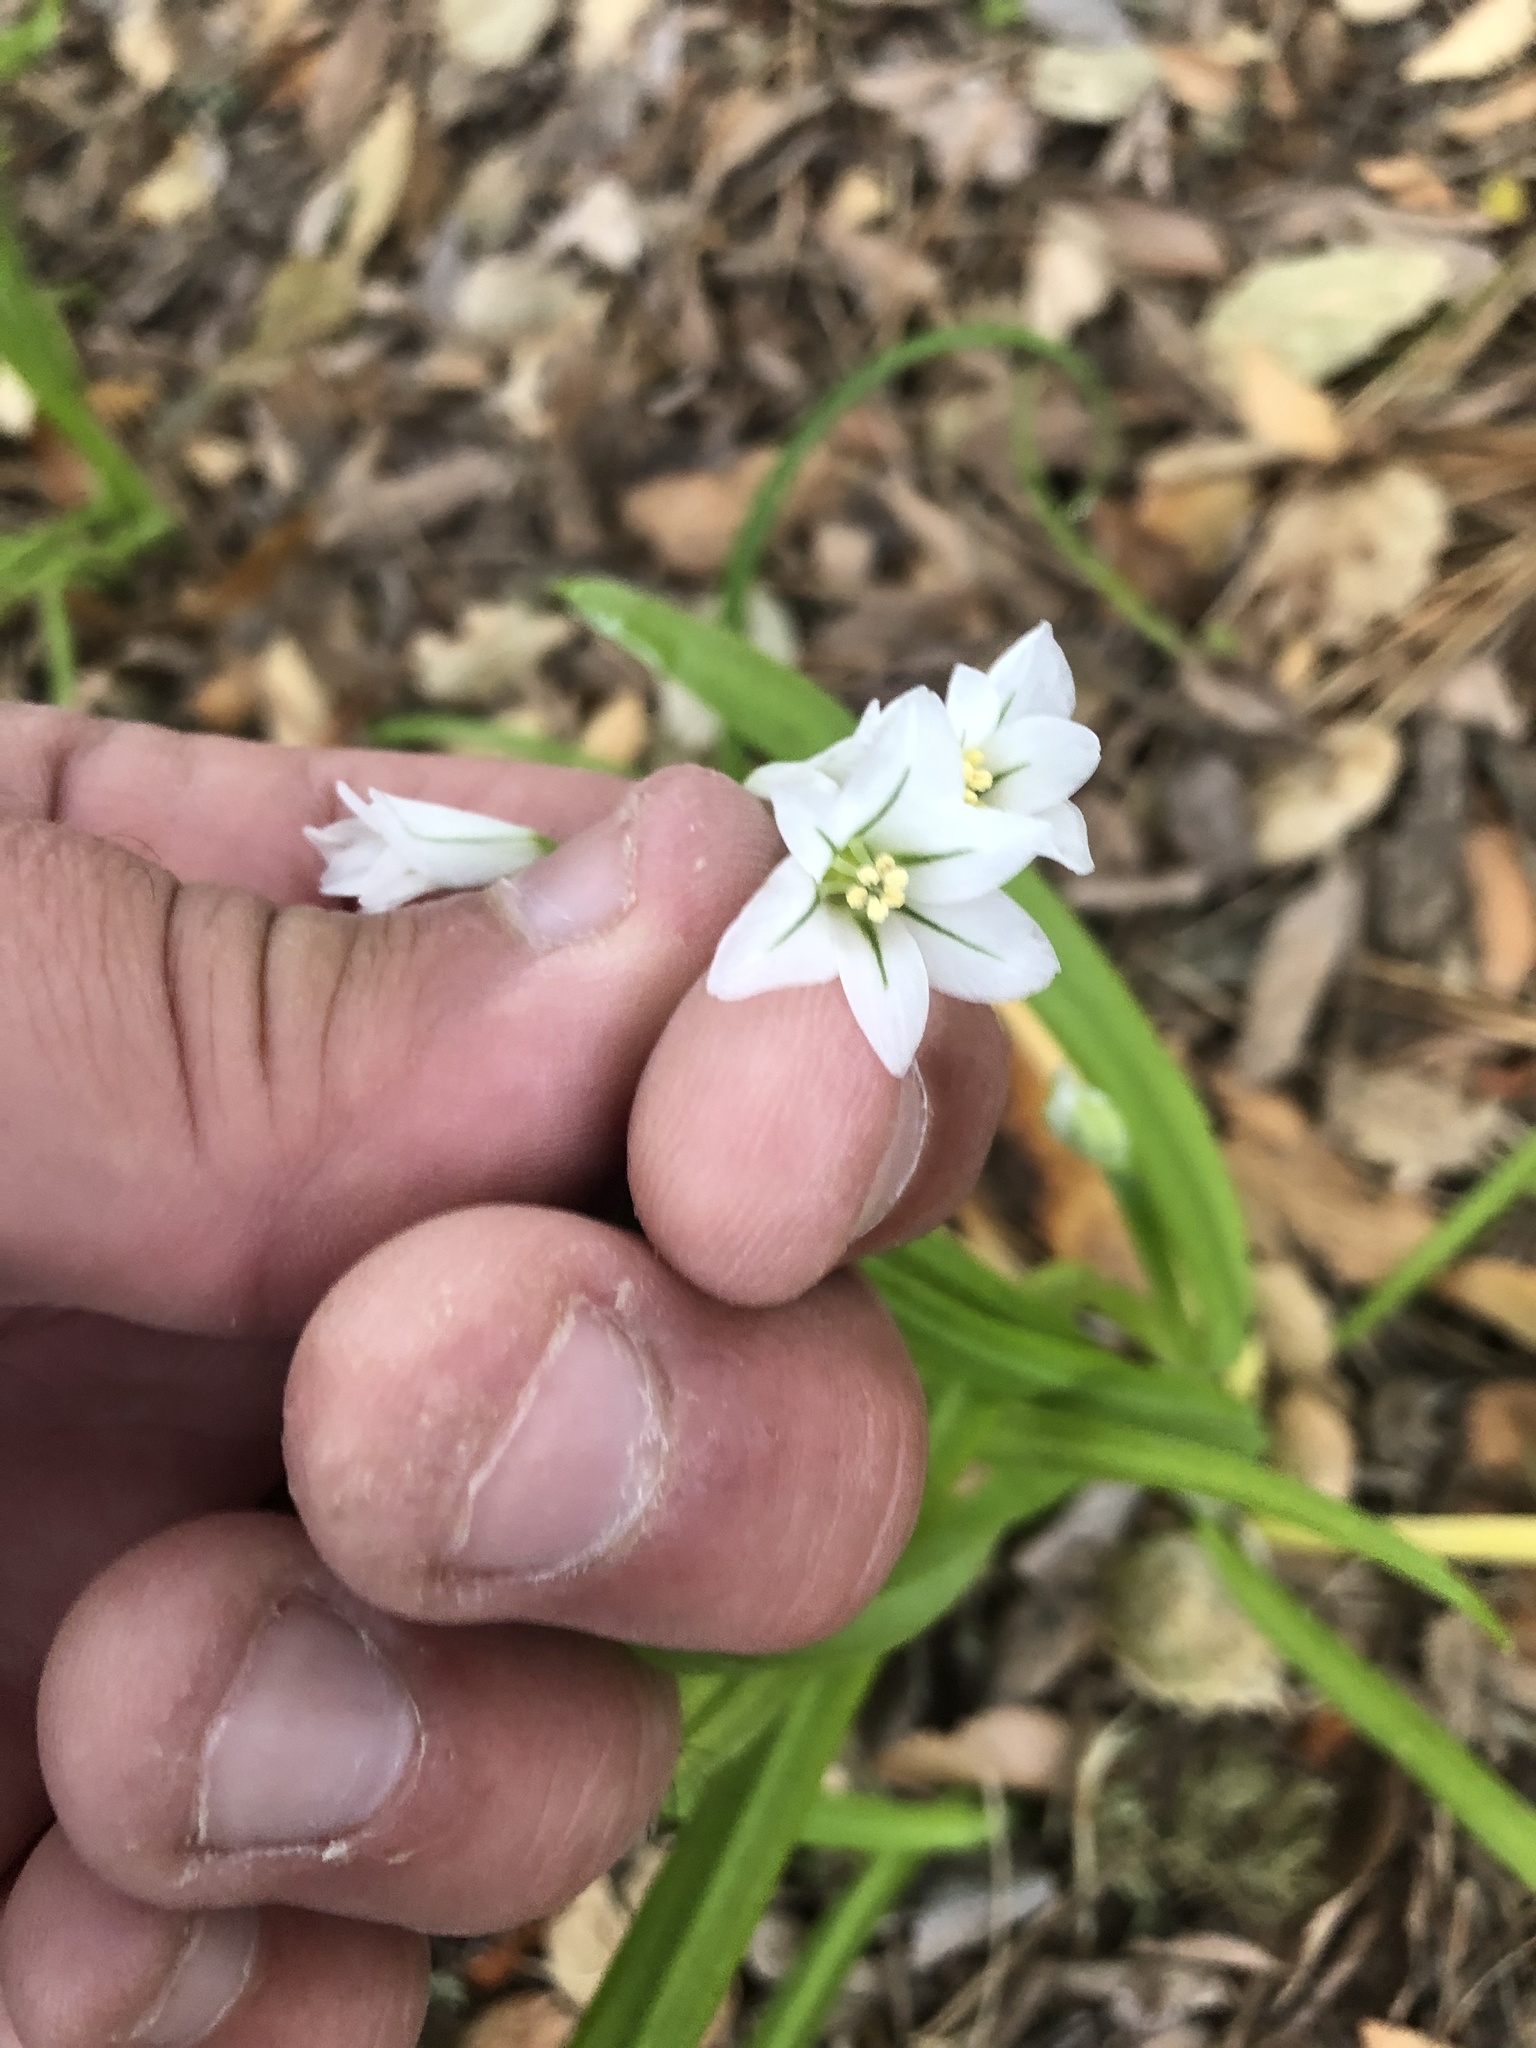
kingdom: Plantae
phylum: Tracheophyta
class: Liliopsida
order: Asparagales
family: Amaryllidaceae
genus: Allium
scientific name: Allium triquetrum
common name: Three-cornered garlic
